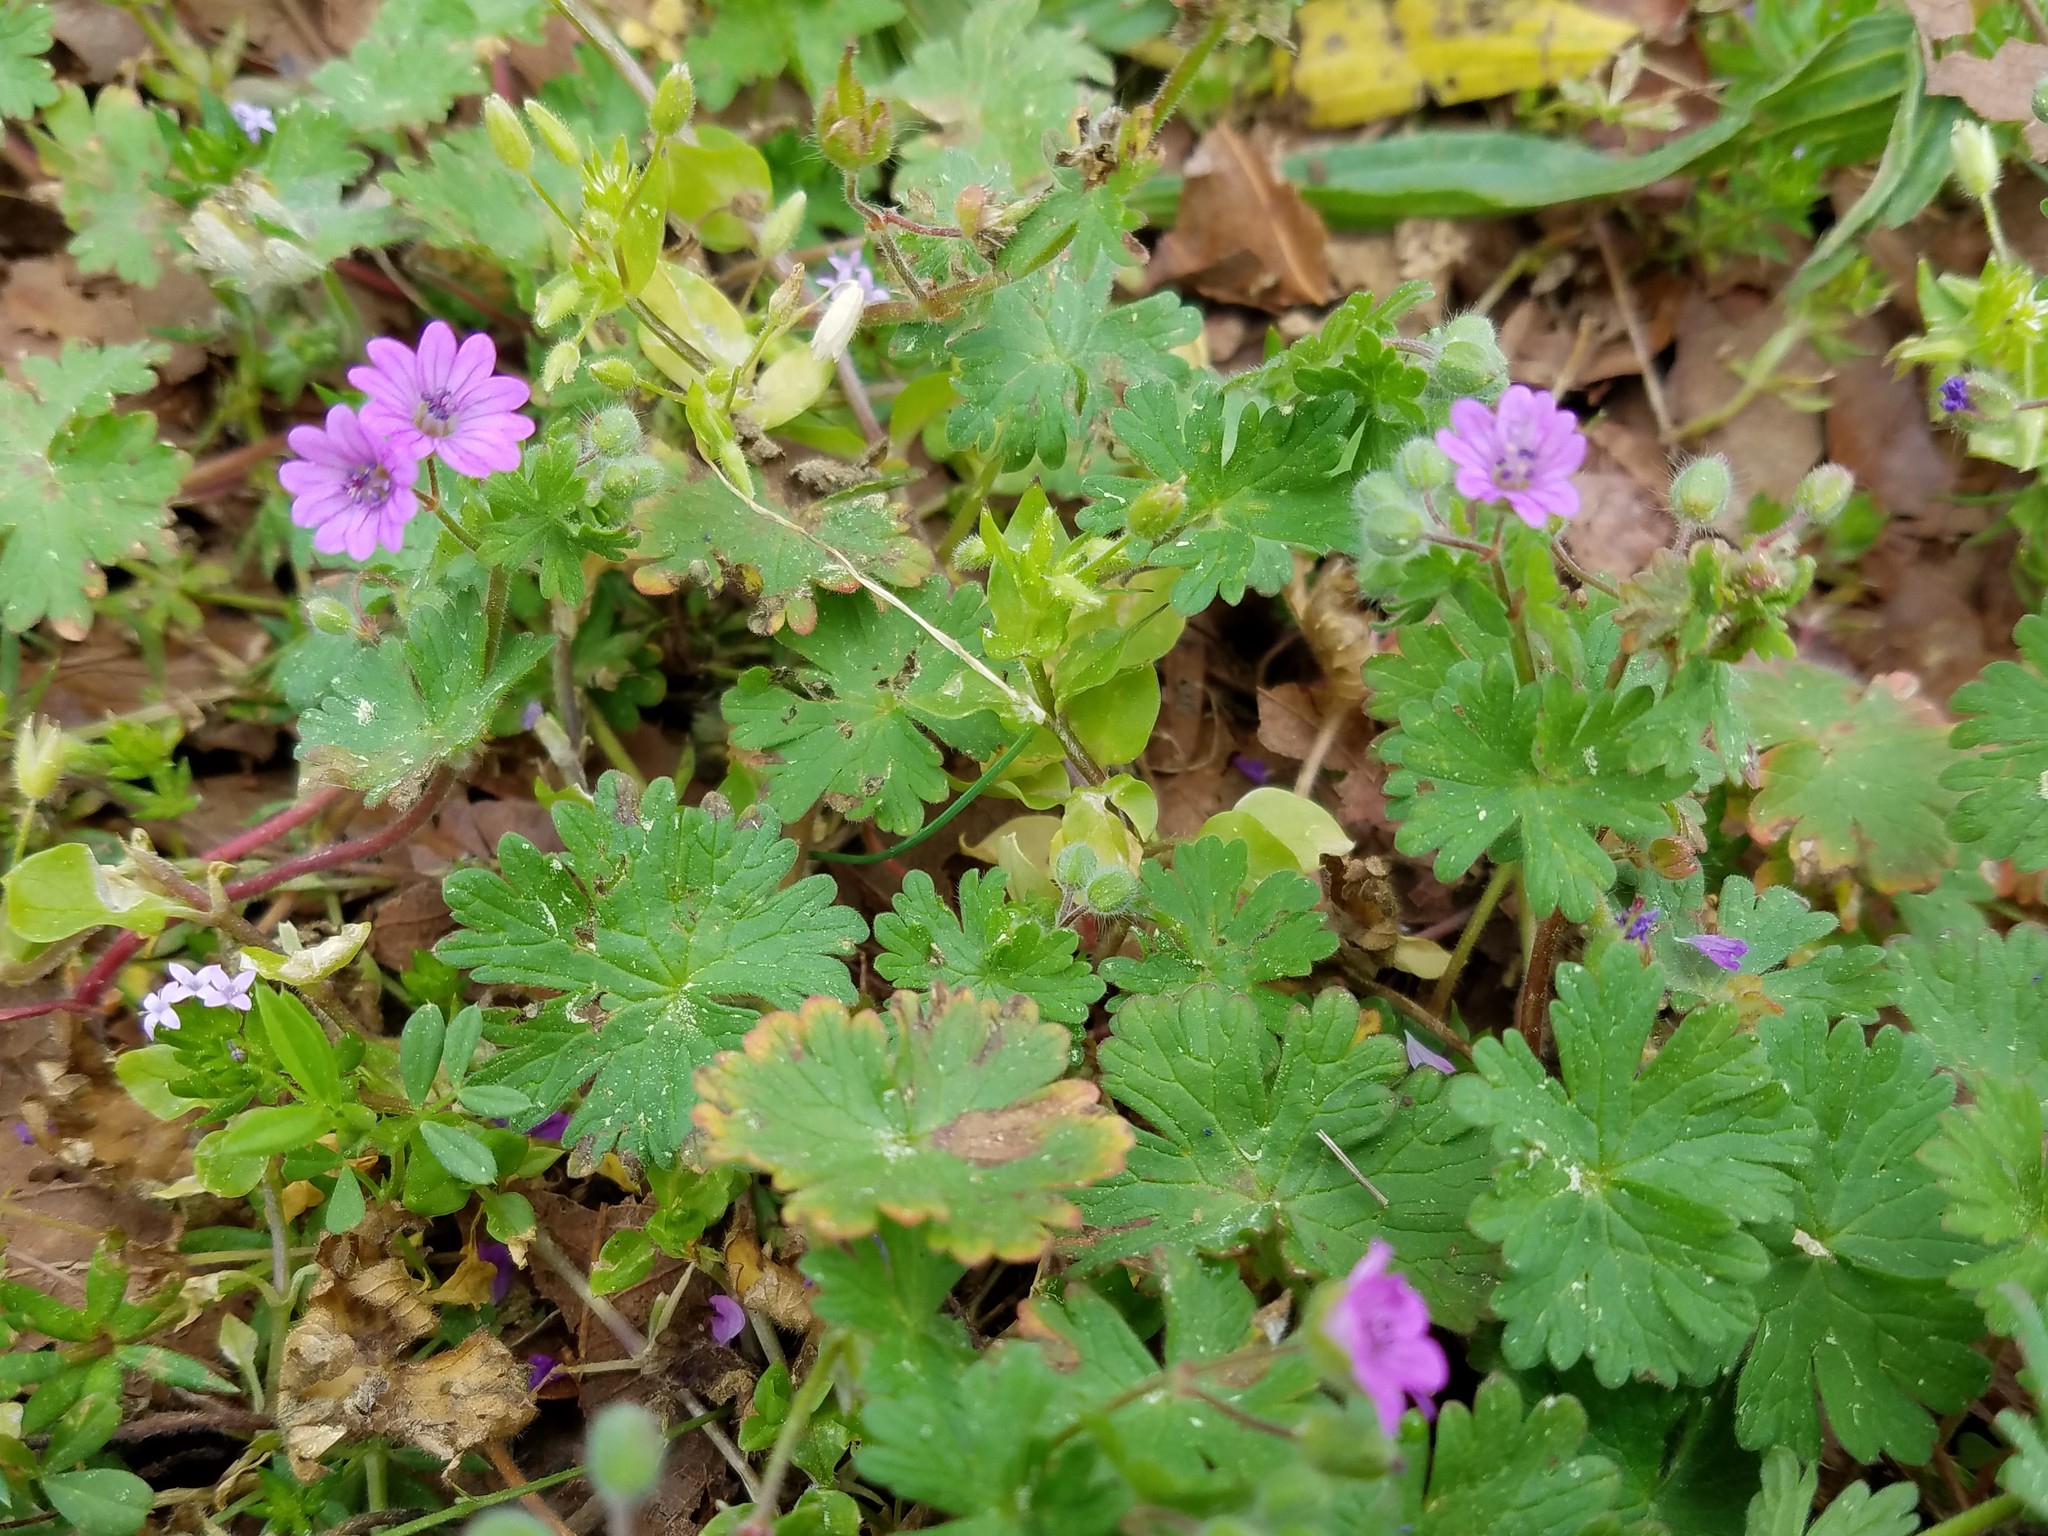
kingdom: Plantae
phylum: Tracheophyta
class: Magnoliopsida
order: Geraniales
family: Geraniaceae
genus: Geranium
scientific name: Geranium molle
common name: Dove's-foot crane's-bill
